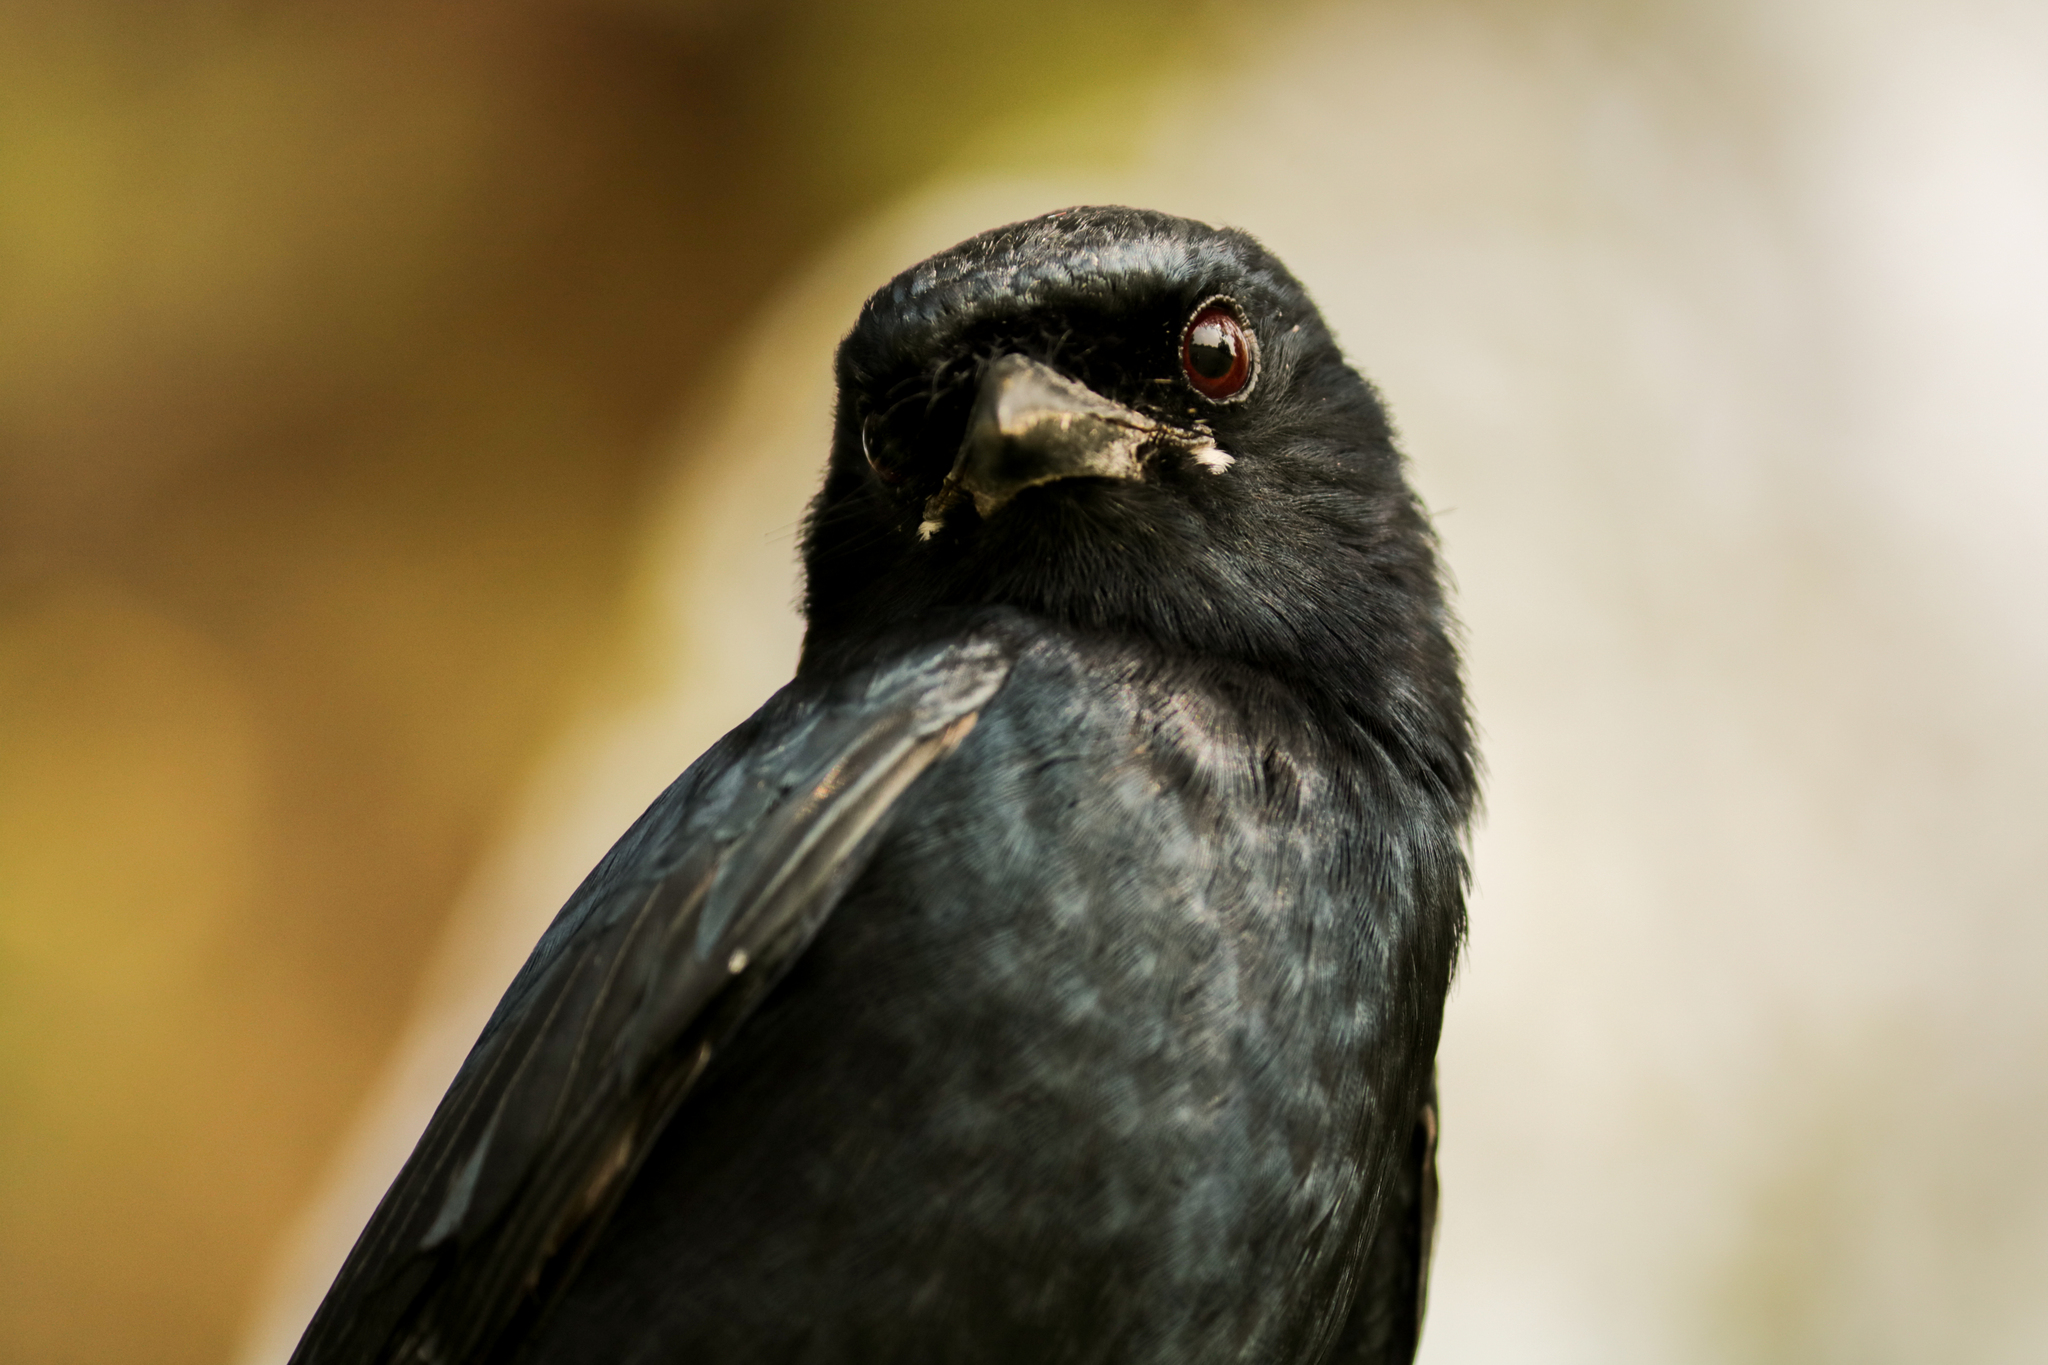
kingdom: Animalia
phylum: Chordata
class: Aves
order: Passeriformes
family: Dicruridae
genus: Dicrurus
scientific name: Dicrurus macrocercus
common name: Black drongo
